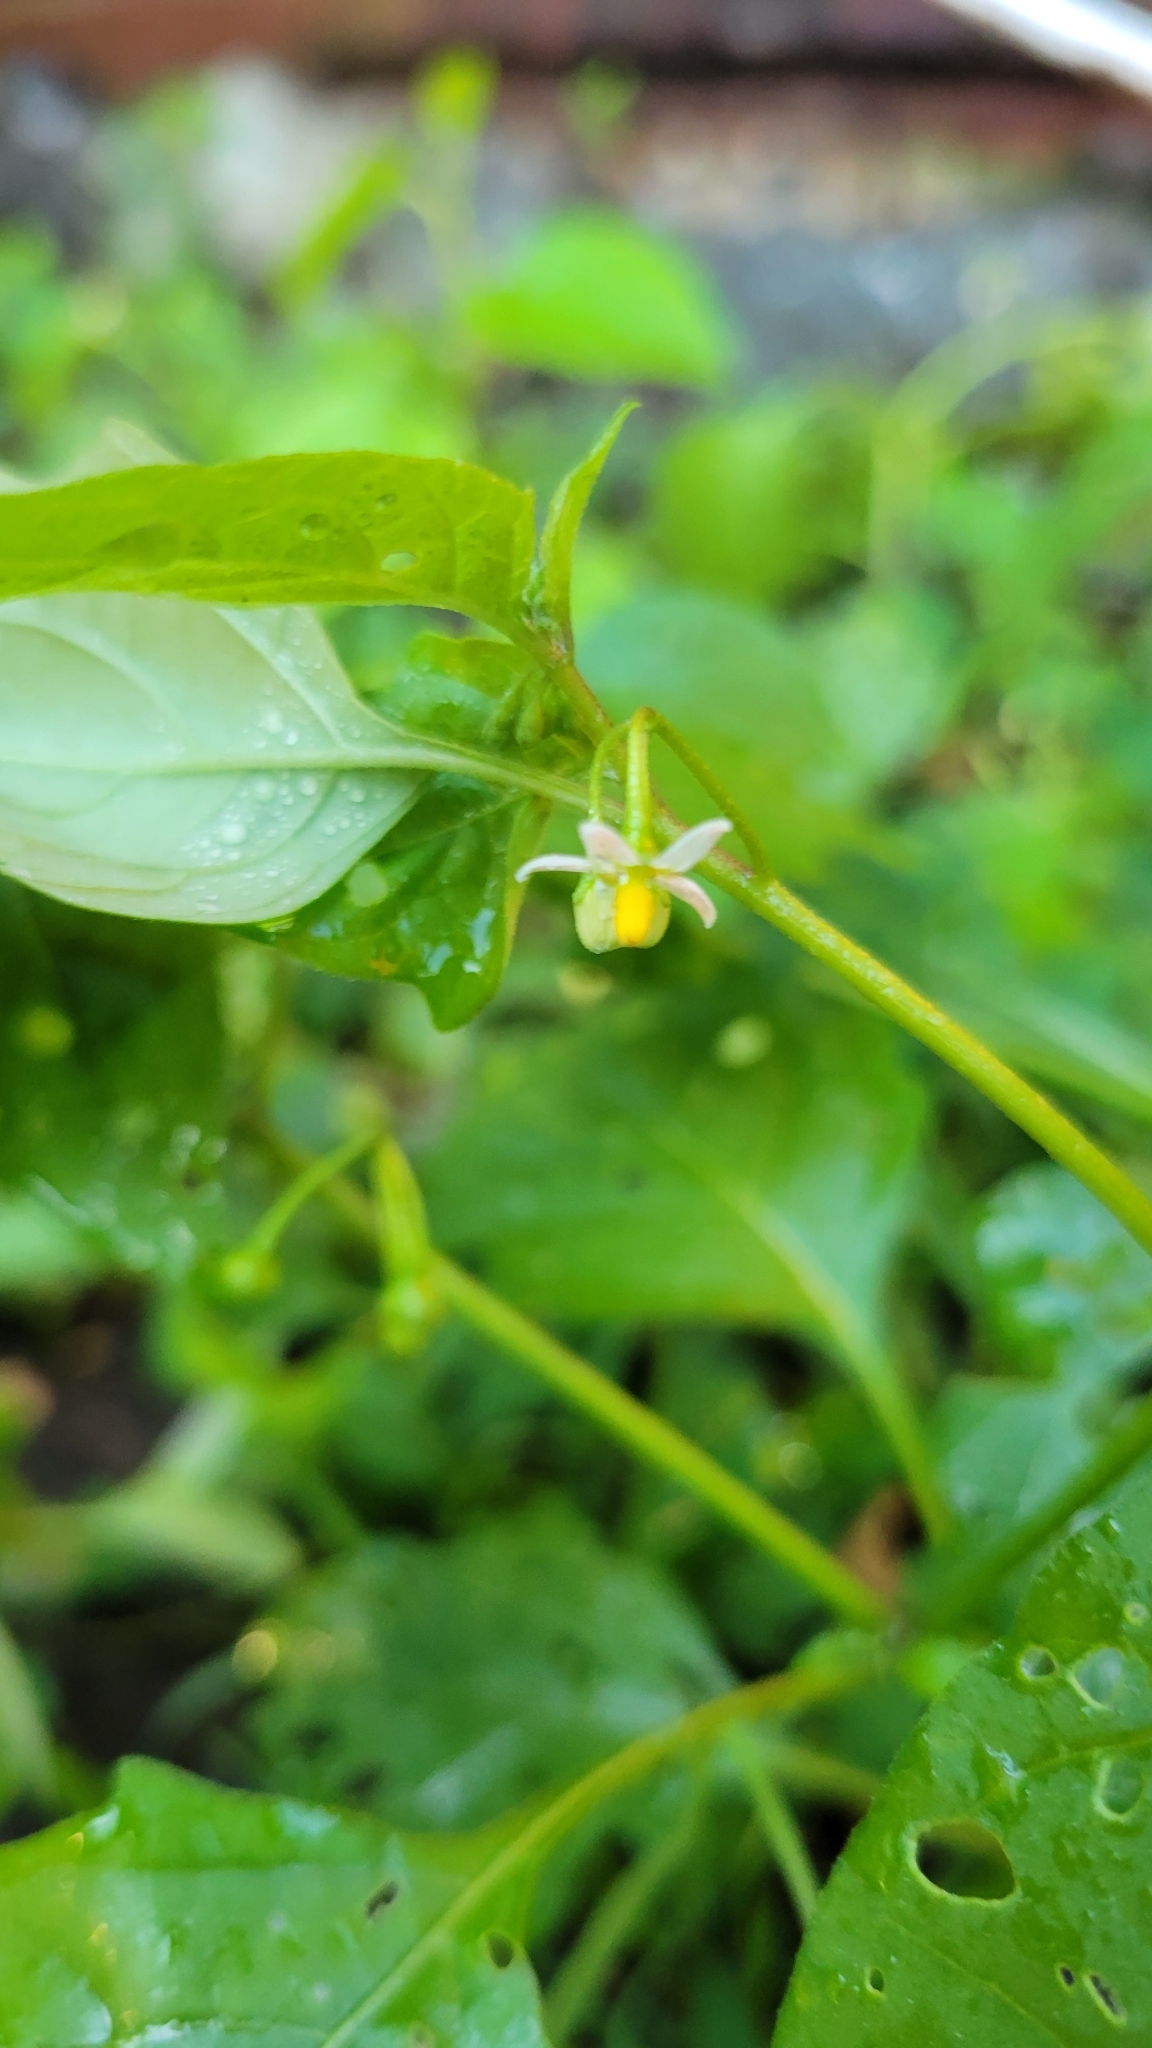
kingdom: Plantae
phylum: Tracheophyta
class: Magnoliopsida
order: Solanales
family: Solanaceae
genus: Solanum
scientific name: Solanum emulans
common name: Eastern black nightshade
